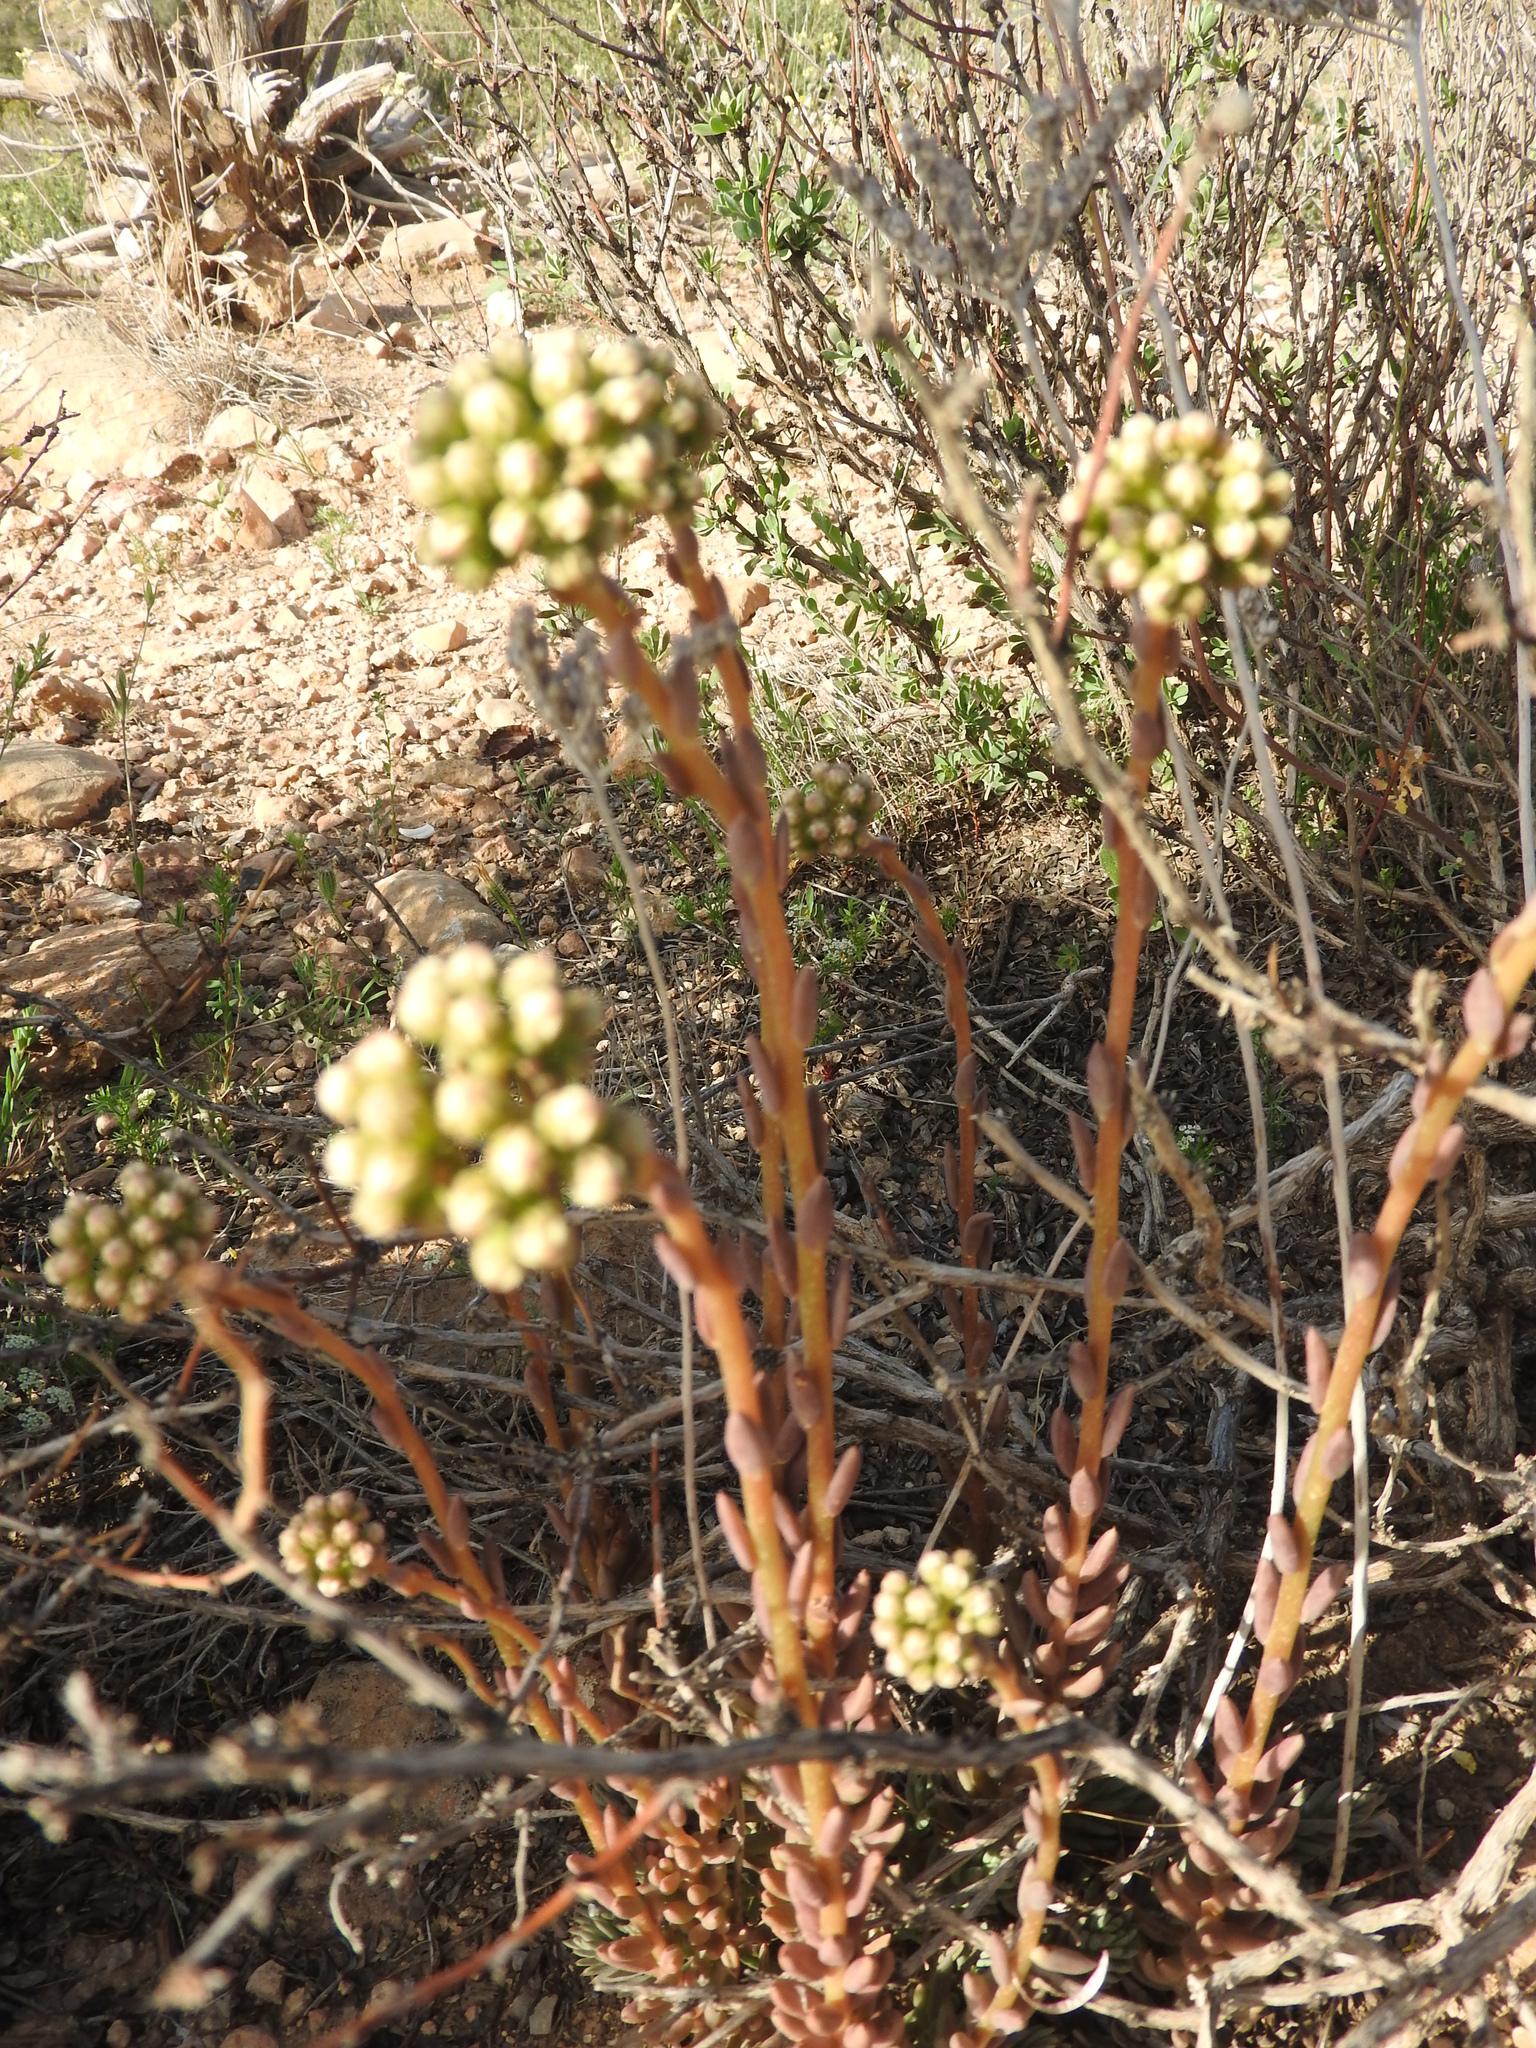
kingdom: Plantae
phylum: Tracheophyta
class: Magnoliopsida
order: Saxifragales
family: Crassulaceae
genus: Petrosedum
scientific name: Petrosedum sediforme
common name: Pale stonecrop
